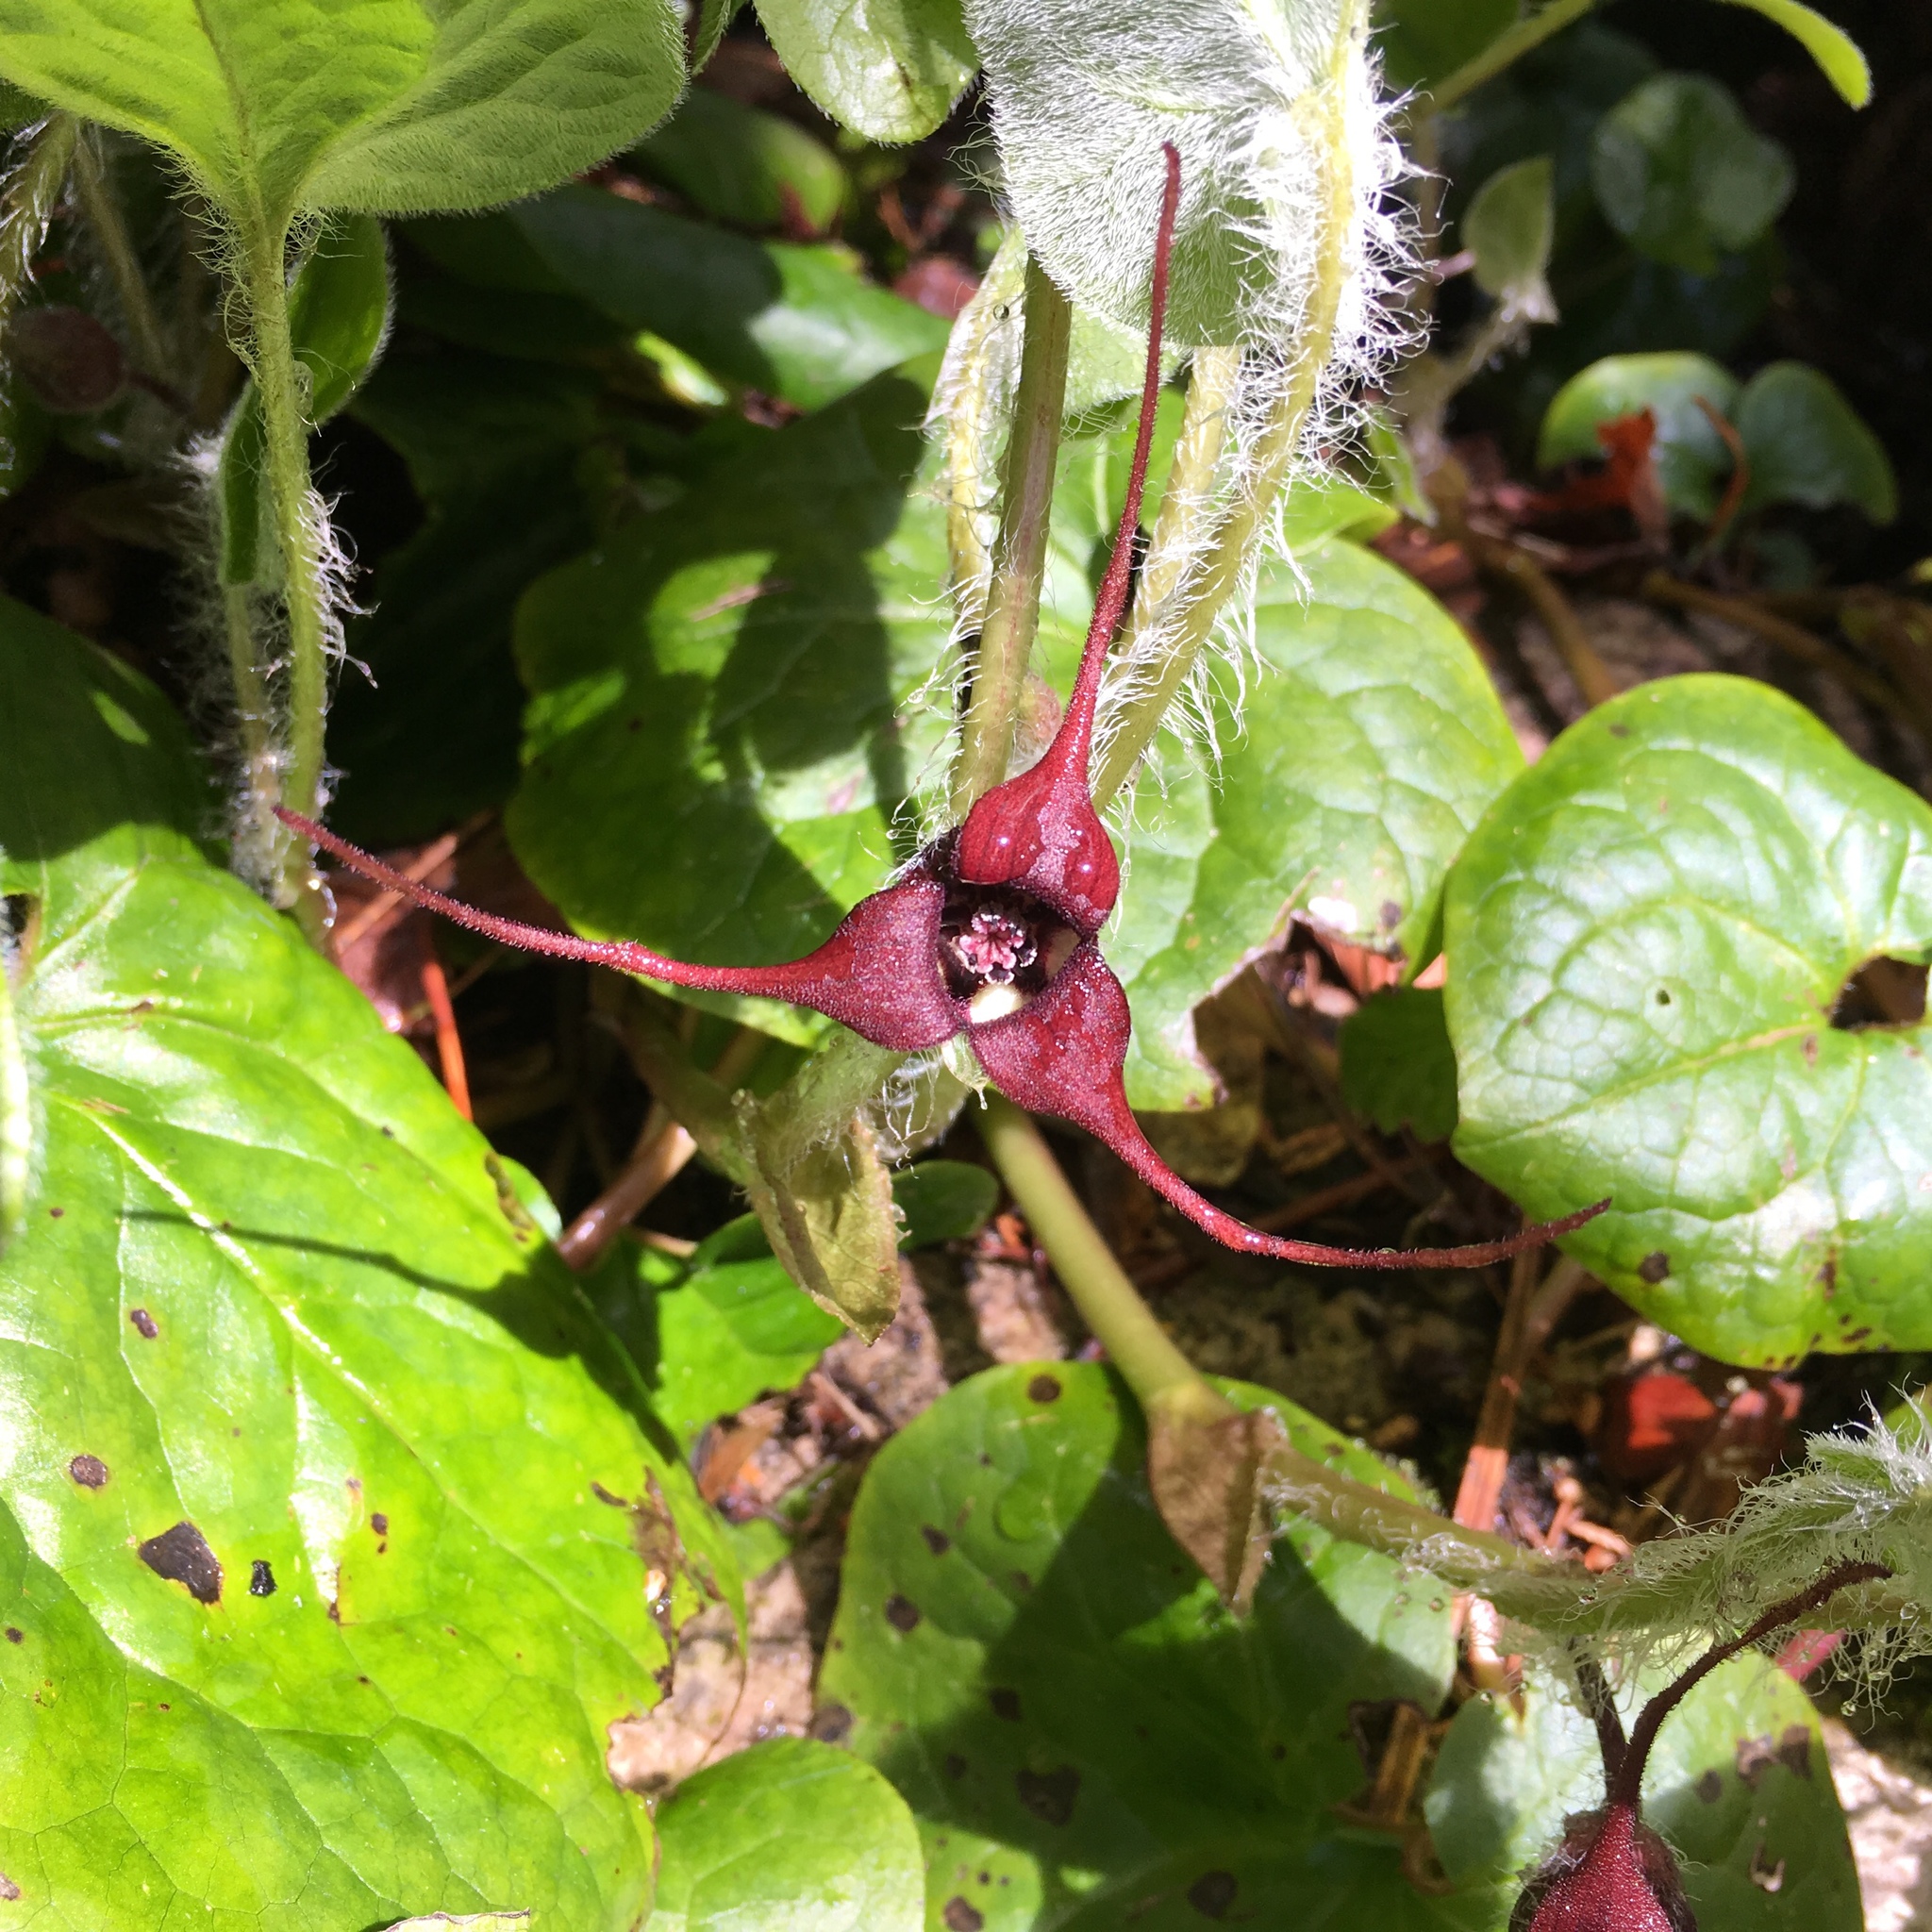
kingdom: Plantae
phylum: Tracheophyta
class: Magnoliopsida
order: Piperales
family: Aristolochiaceae
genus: Asarum
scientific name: Asarum caudatum
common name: Wild ginger
